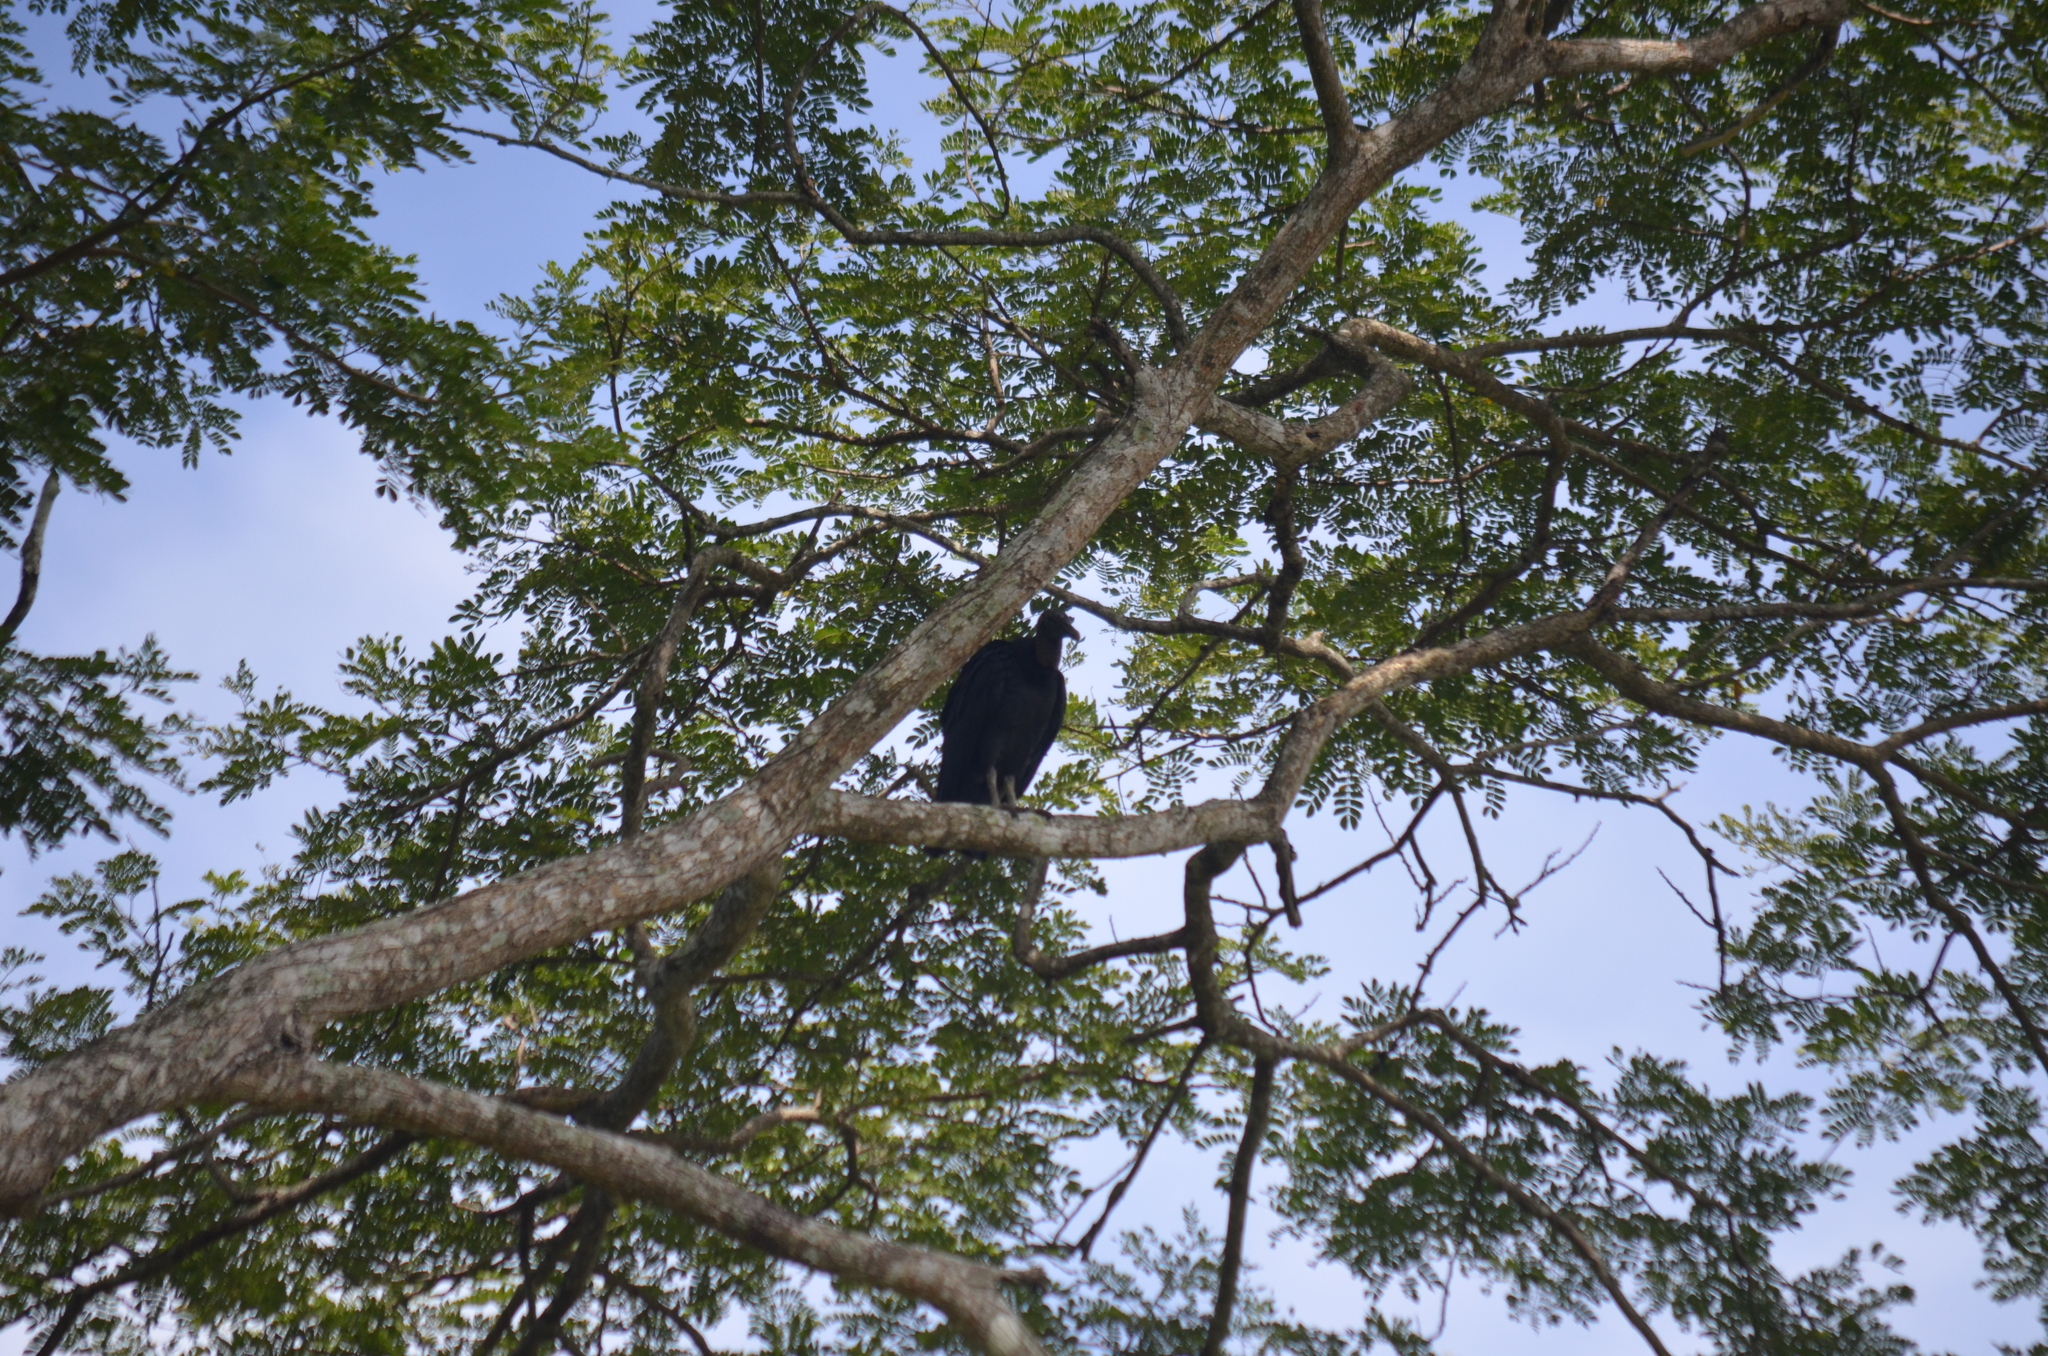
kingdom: Animalia
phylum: Chordata
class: Aves
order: Accipitriformes
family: Cathartidae
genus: Coragyps
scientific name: Coragyps atratus
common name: Black vulture
